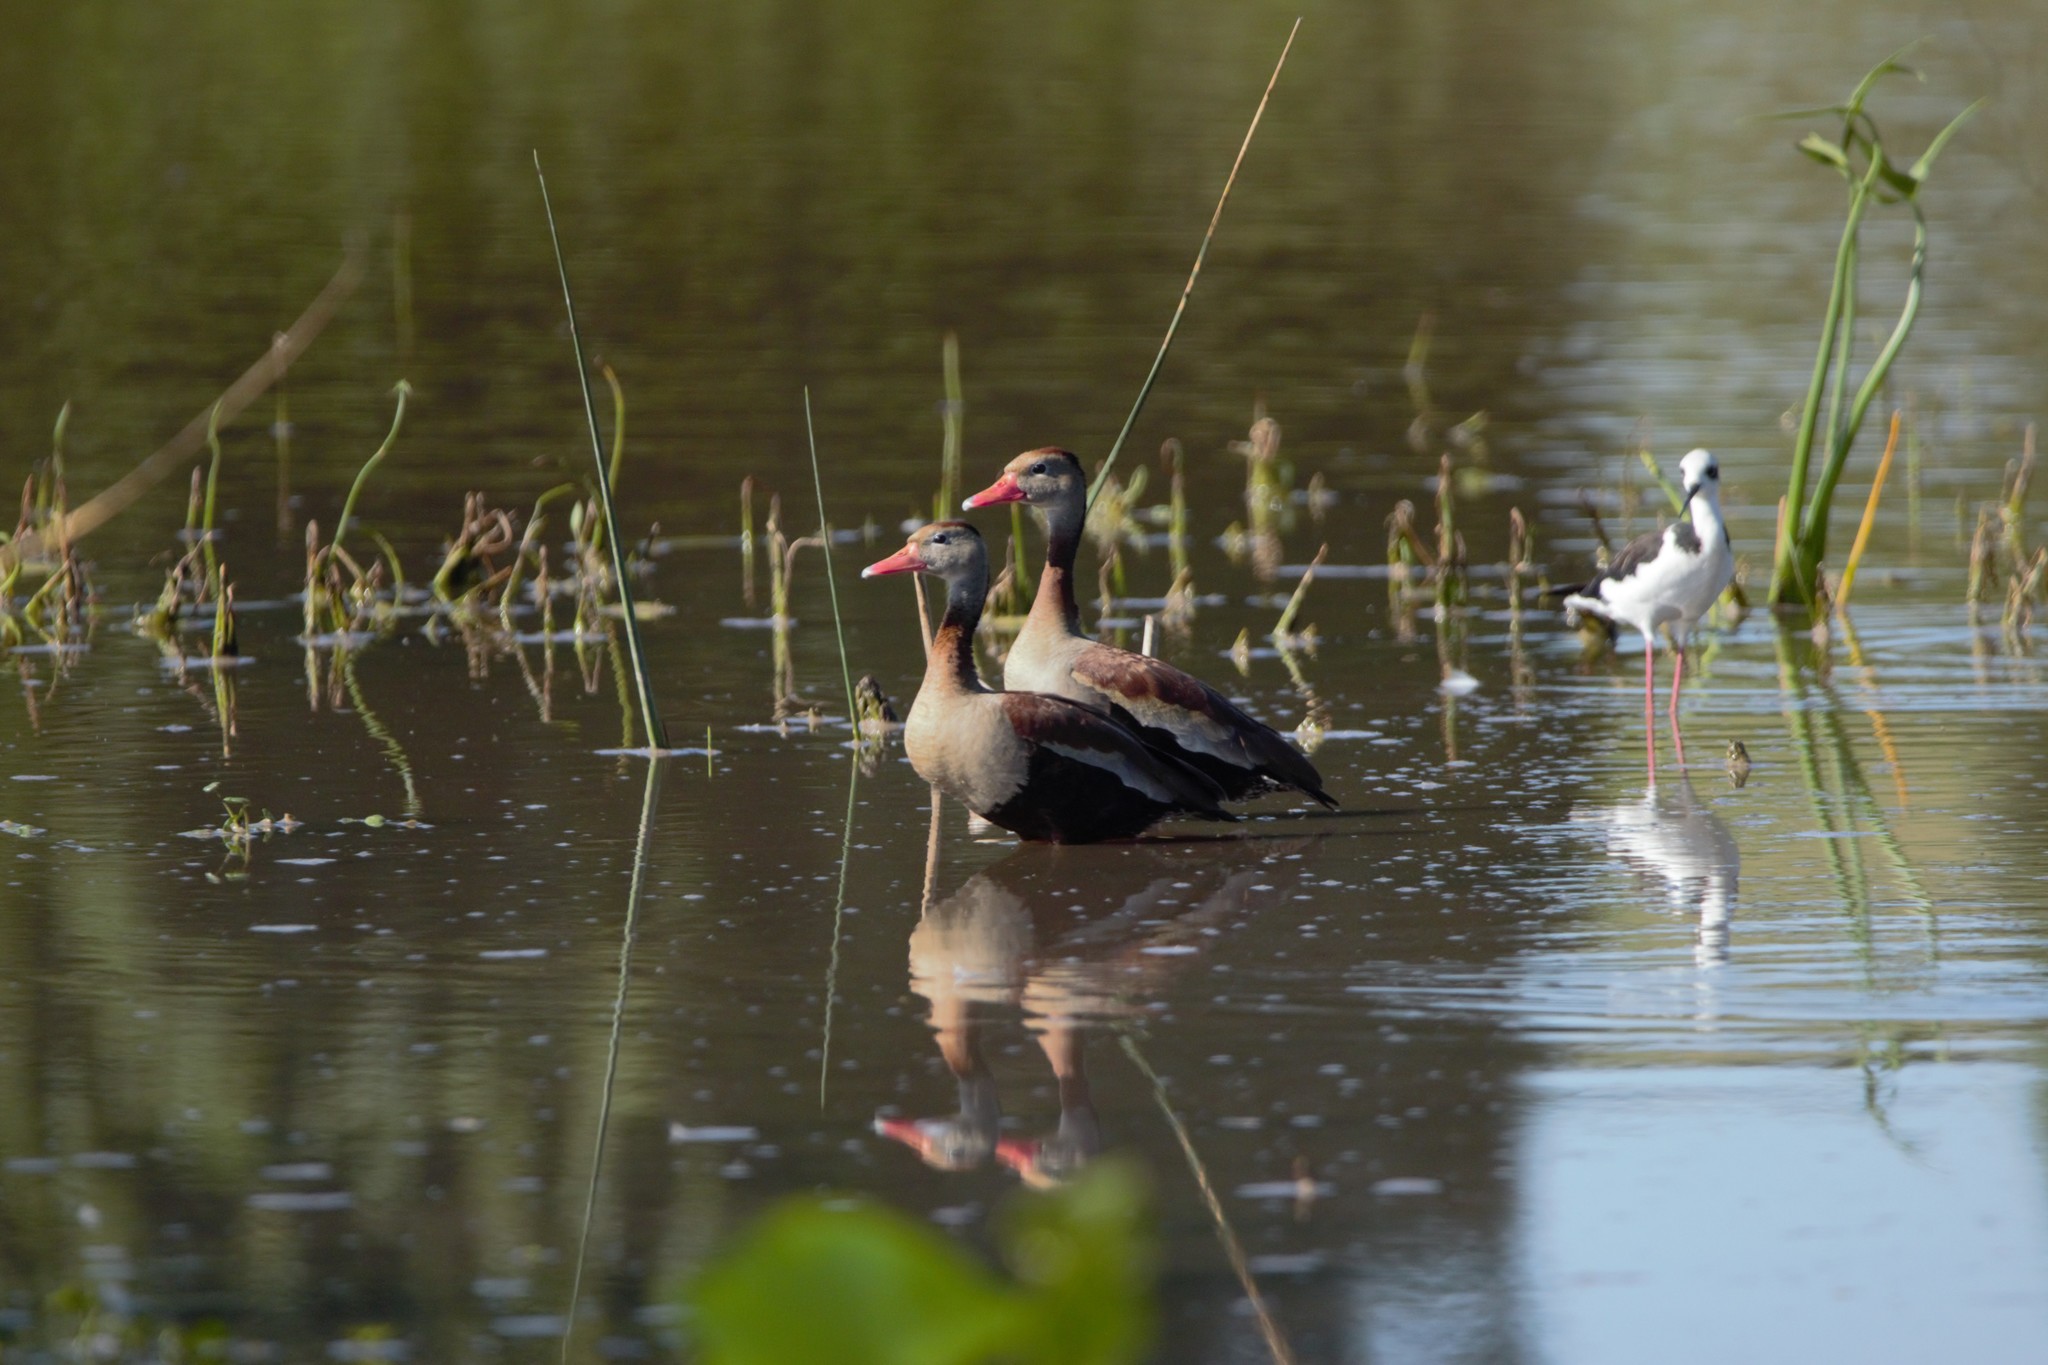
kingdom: Animalia
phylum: Chordata
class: Aves
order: Anseriformes
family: Anatidae
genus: Dendrocygna
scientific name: Dendrocygna autumnalis
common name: Black-bellied whistling duck
